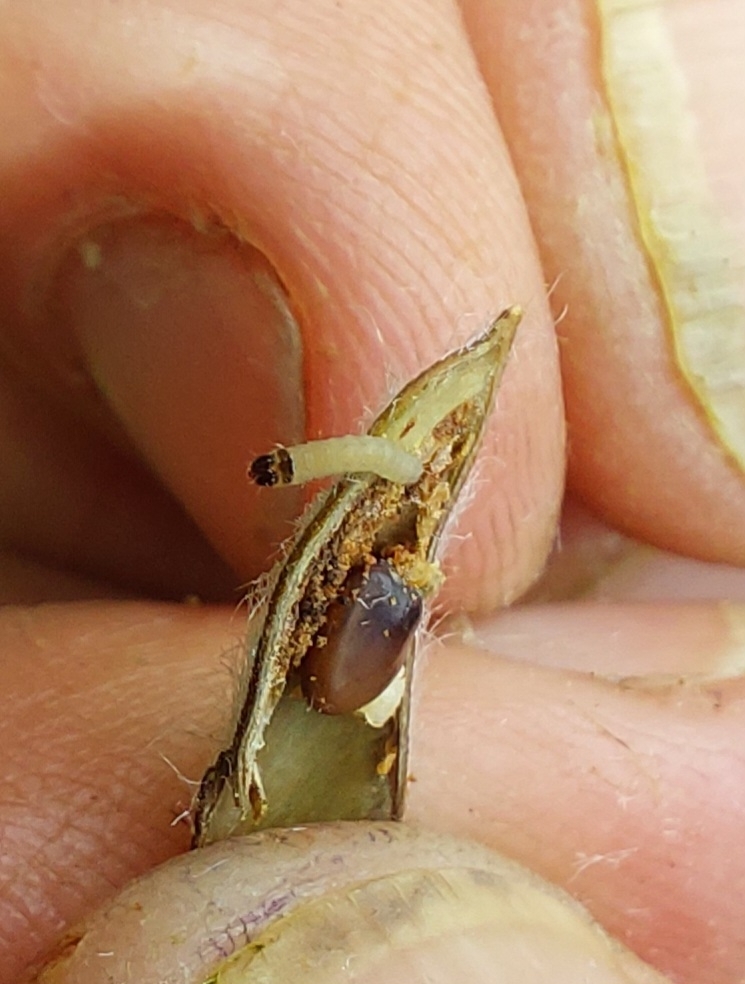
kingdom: Animalia
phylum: Arthropoda
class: Insecta
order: Lepidoptera
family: Tortricidae
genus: Cydia
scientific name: Cydia succedana
